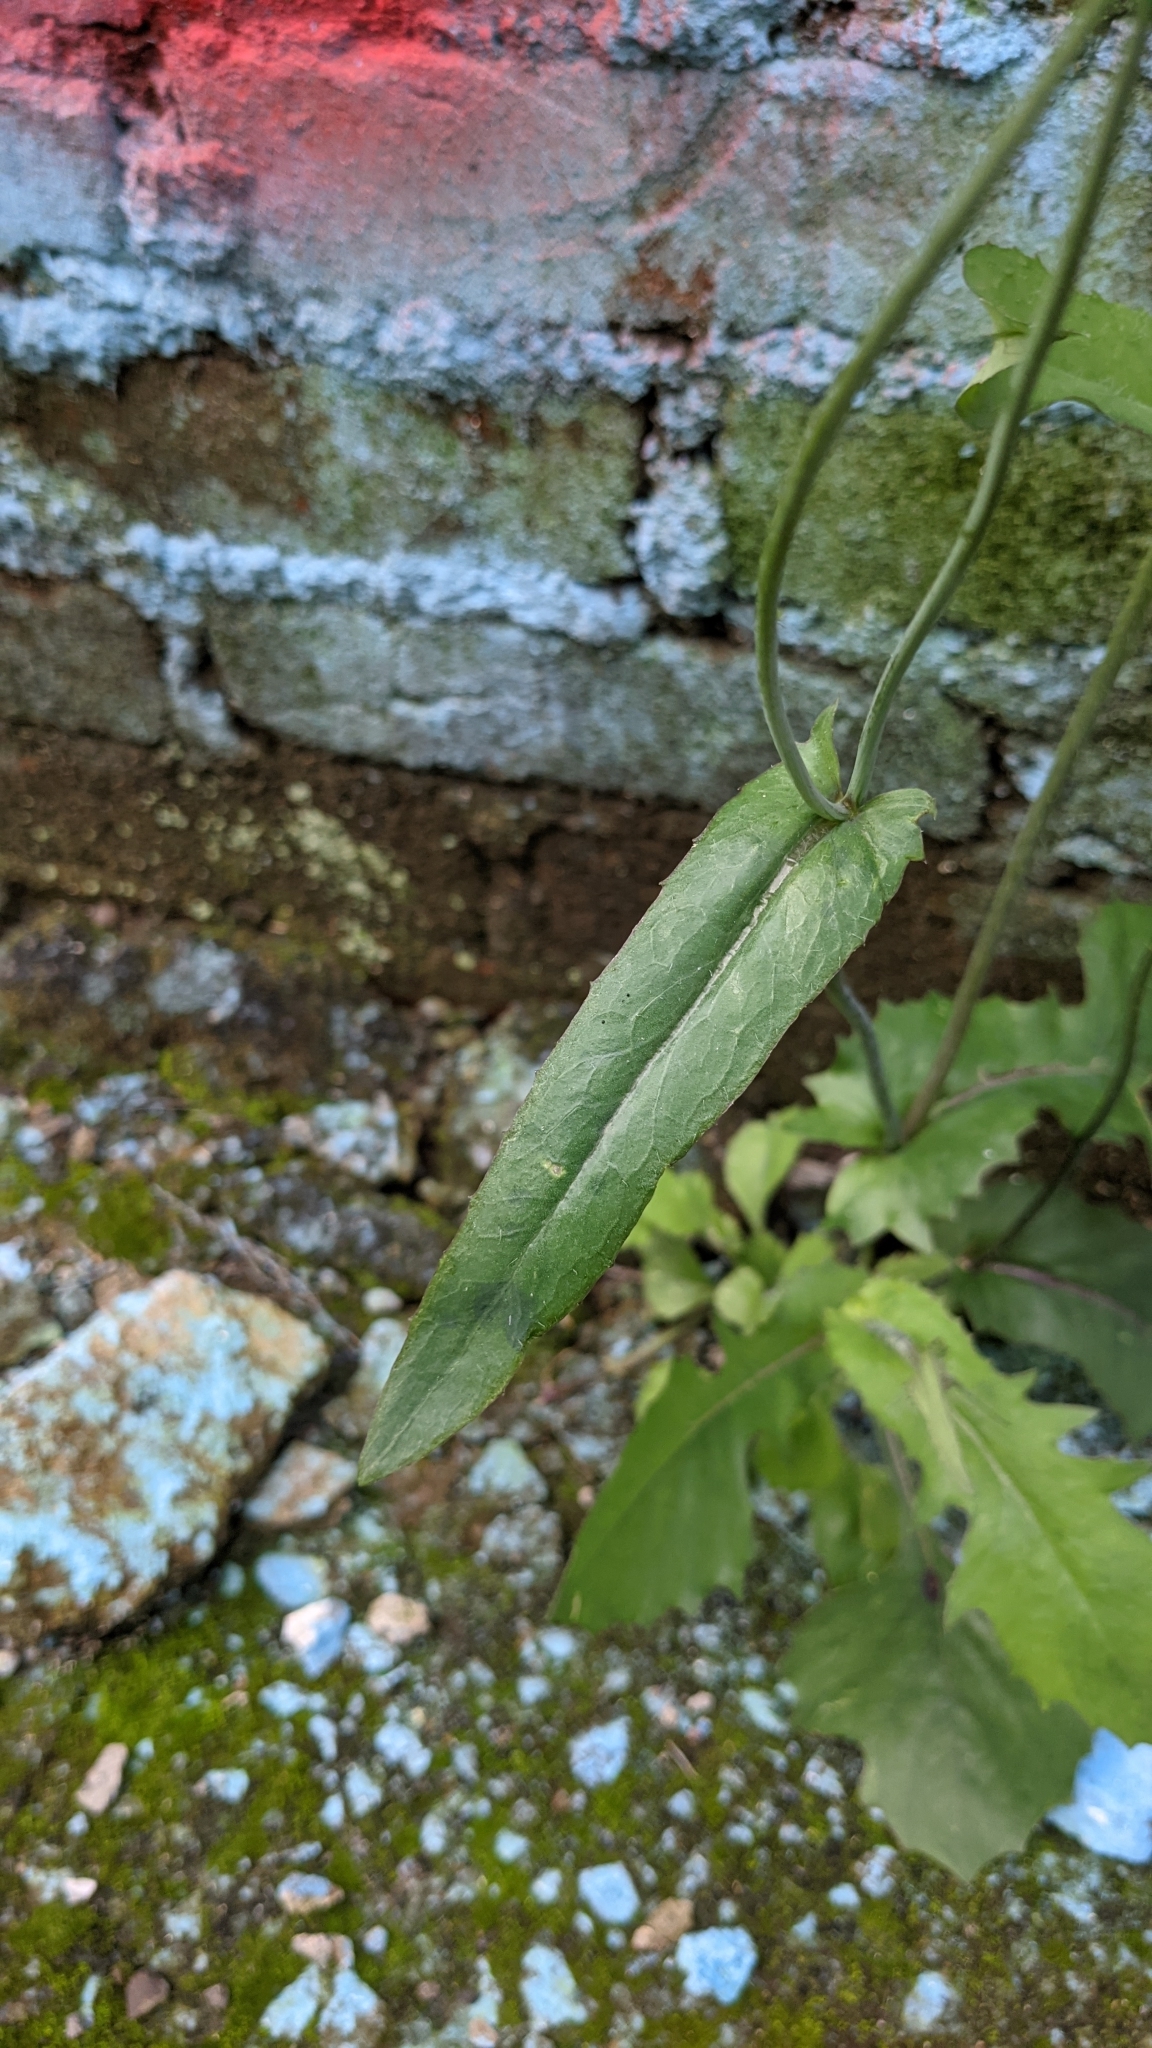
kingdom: Plantae
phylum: Tracheophyta
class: Magnoliopsida
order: Asterales
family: Asteraceae
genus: Emilia
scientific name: Emilia fosbergii
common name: Florida tasselflower
